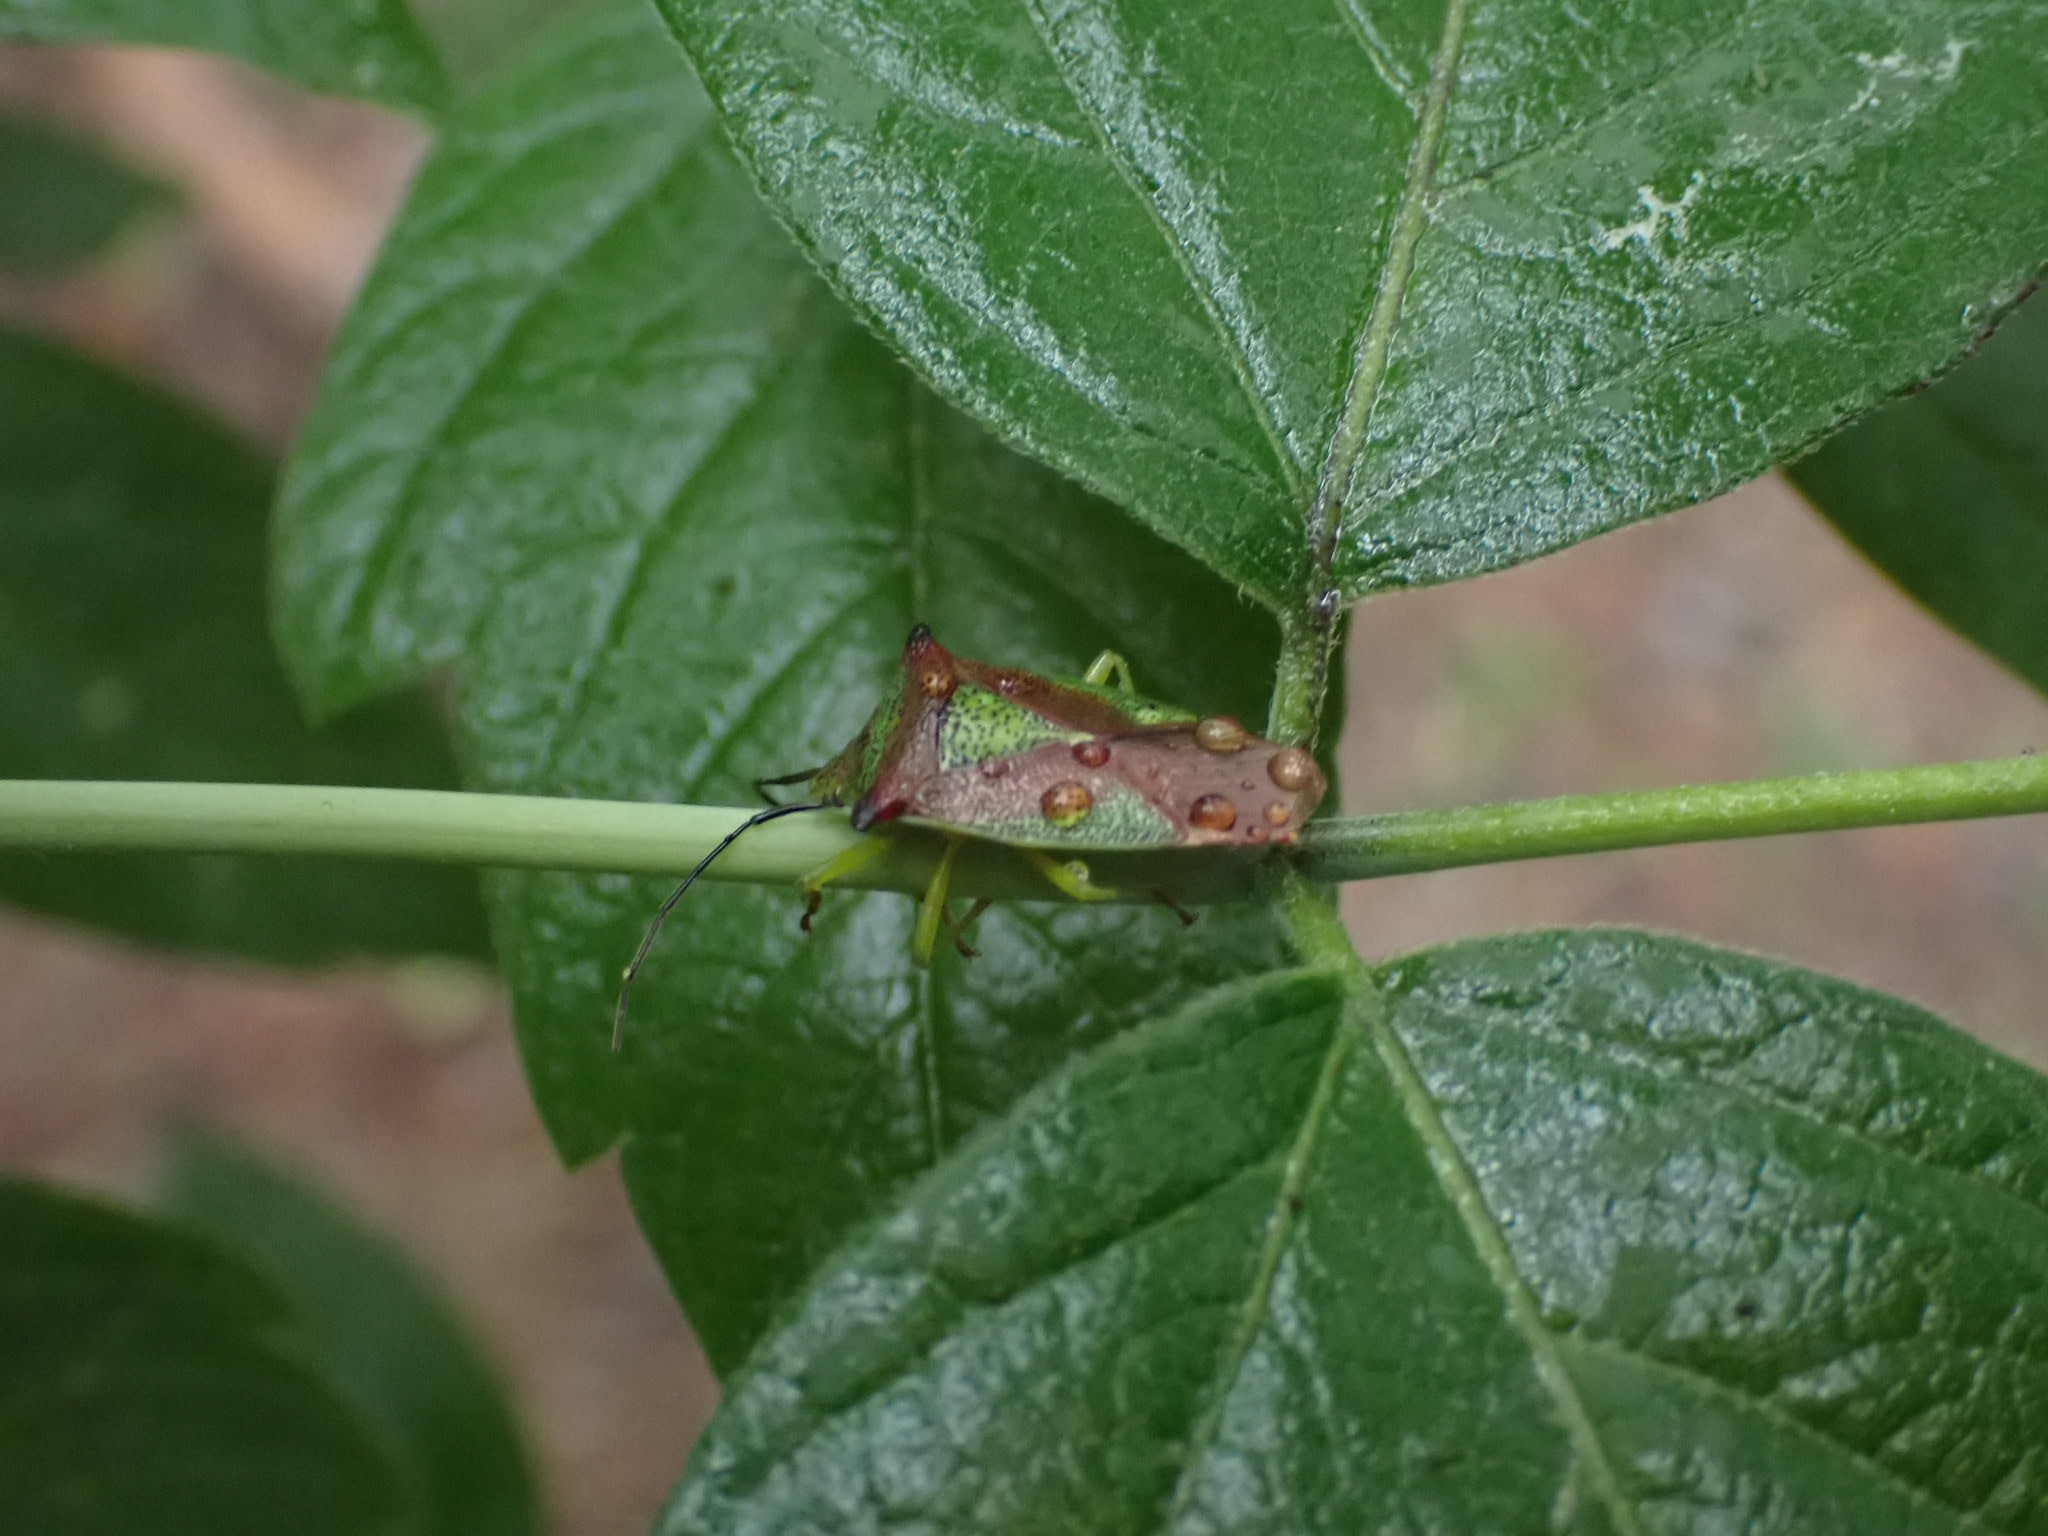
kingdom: Animalia
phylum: Arthropoda
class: Insecta
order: Hemiptera
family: Acanthosomatidae
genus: Acanthosoma
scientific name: Acanthosoma haemorrhoidale
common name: Hawthorn shieldbug
